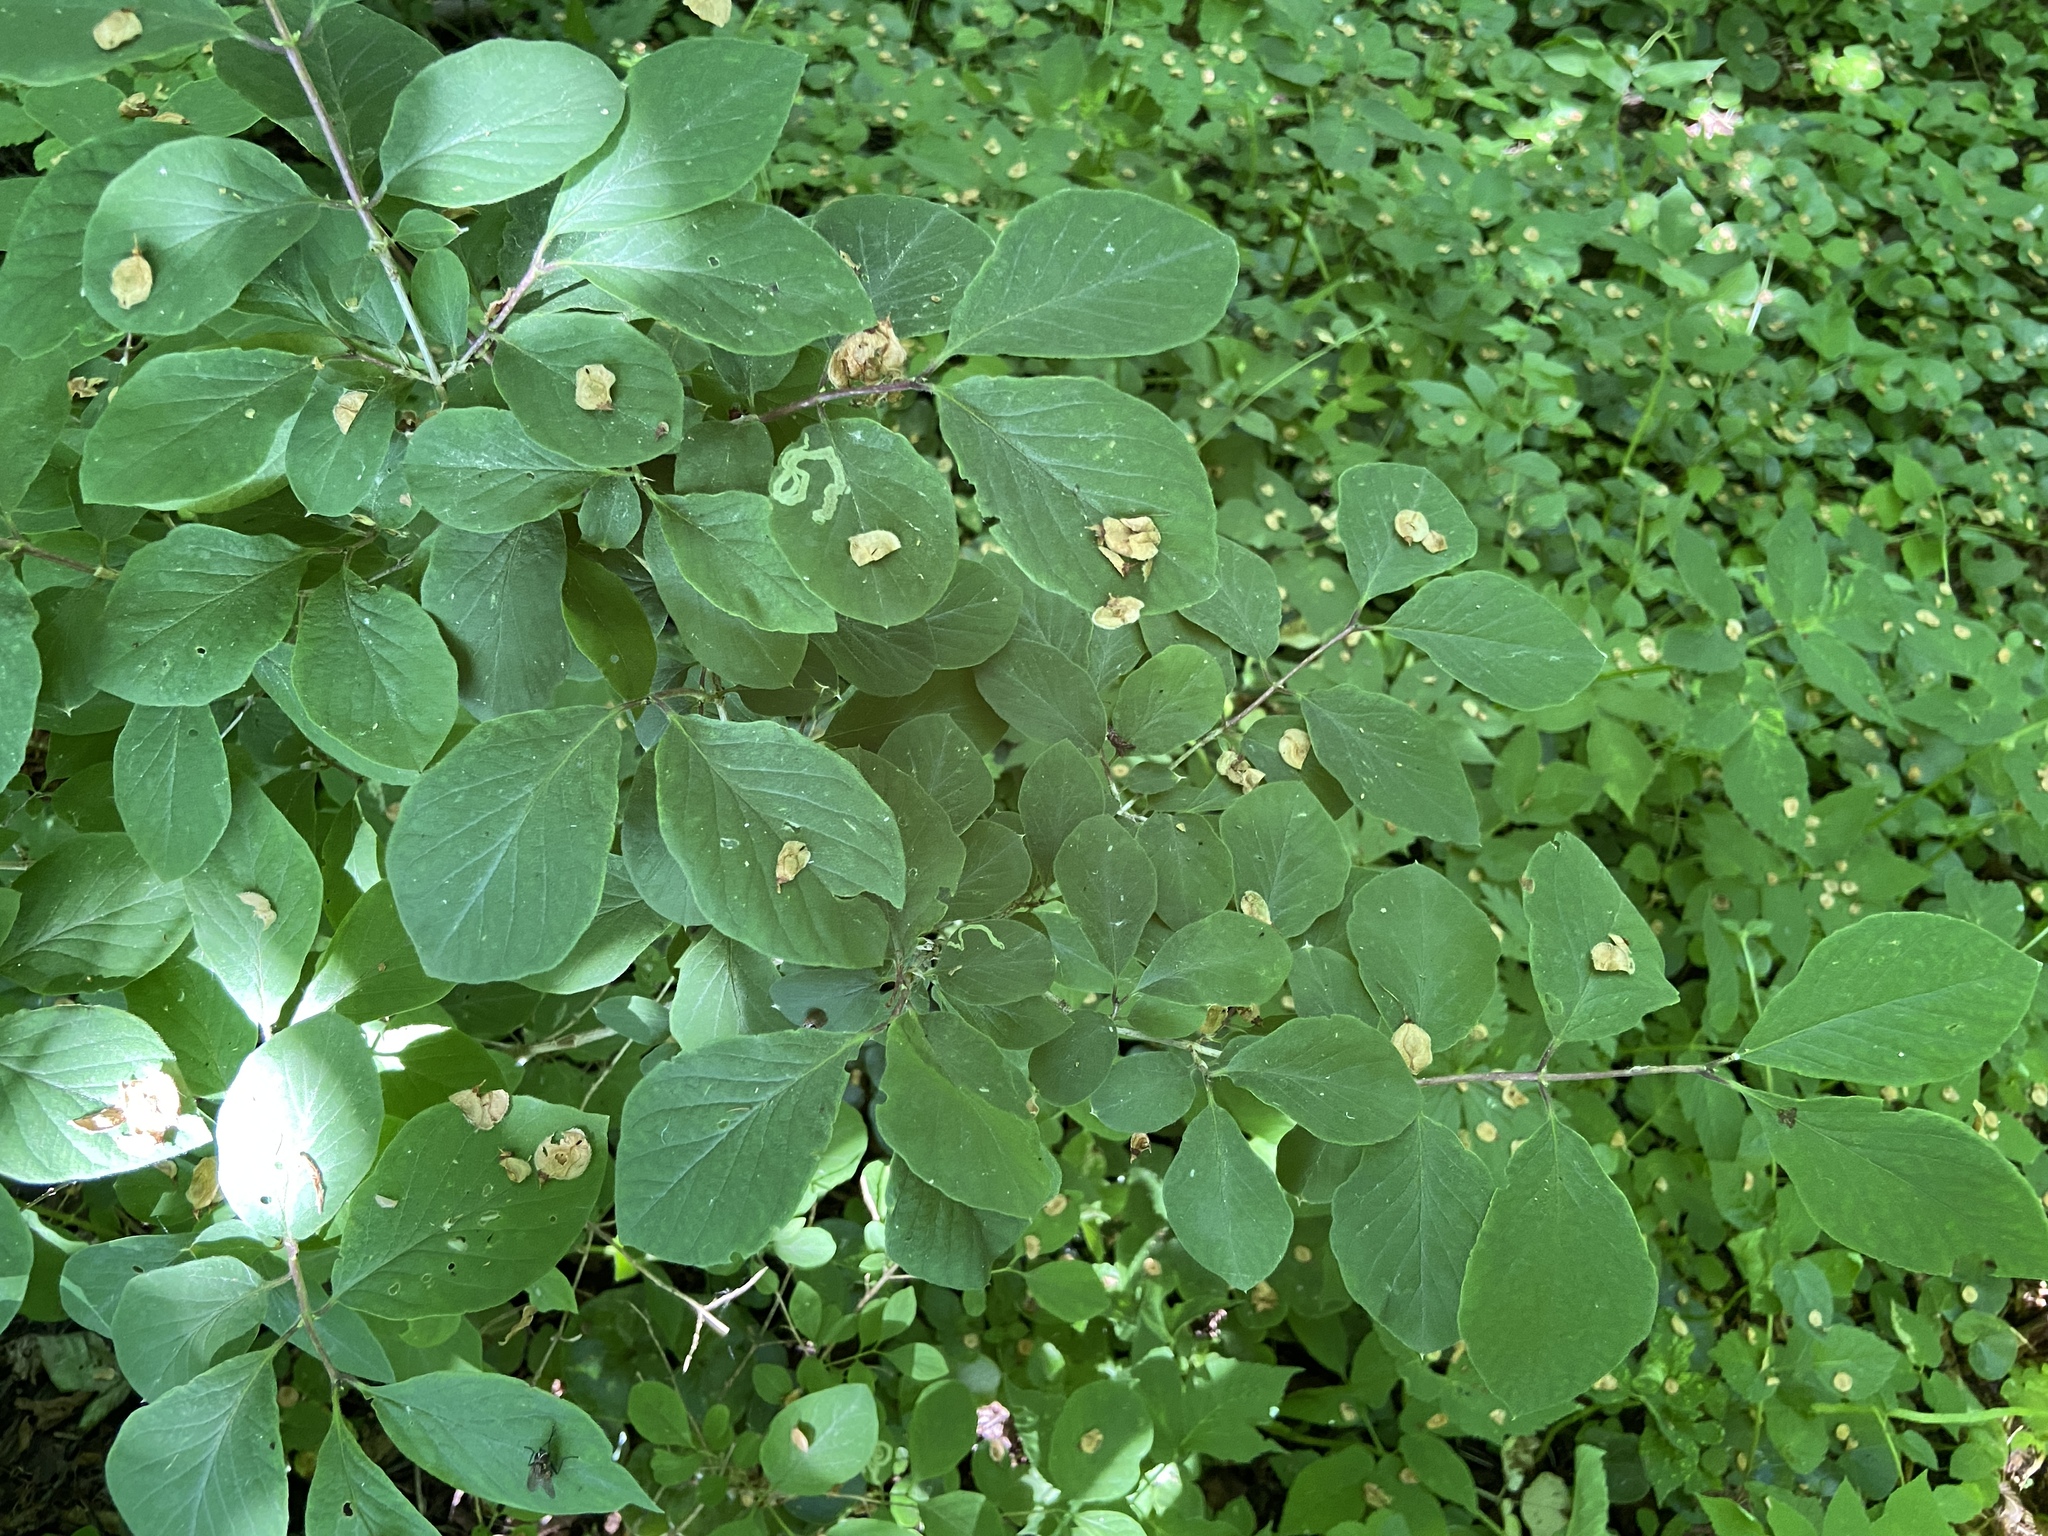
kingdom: Plantae
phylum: Tracheophyta
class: Magnoliopsida
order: Dipsacales
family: Caprifoliaceae
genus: Lonicera
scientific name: Lonicera xylosteum
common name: Fly honeysuckle
